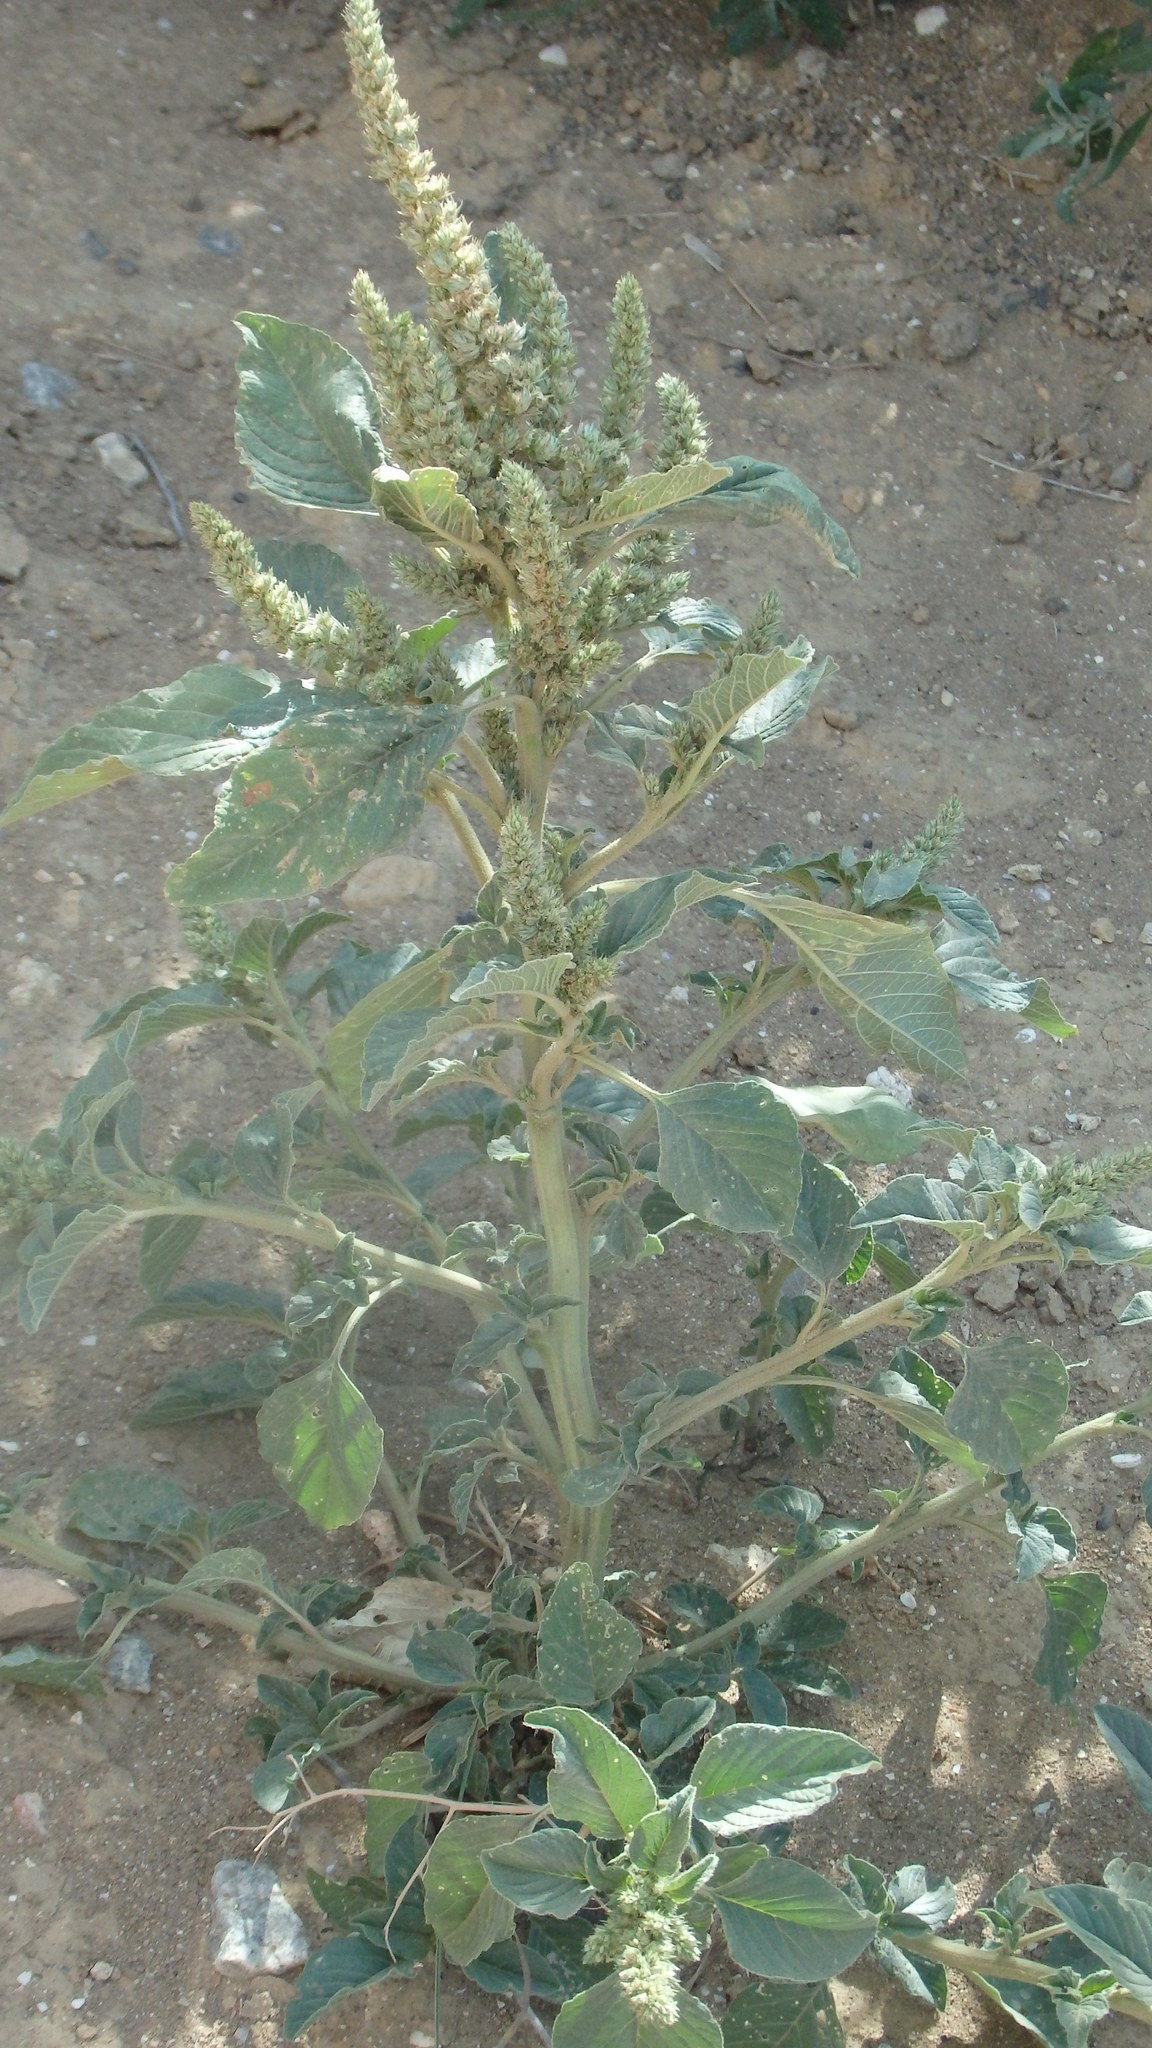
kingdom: Plantae
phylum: Tracheophyta
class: Magnoliopsida
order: Caryophyllales
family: Amaranthaceae
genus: Amaranthus
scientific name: Amaranthus retroflexus
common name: Redroot amaranth
